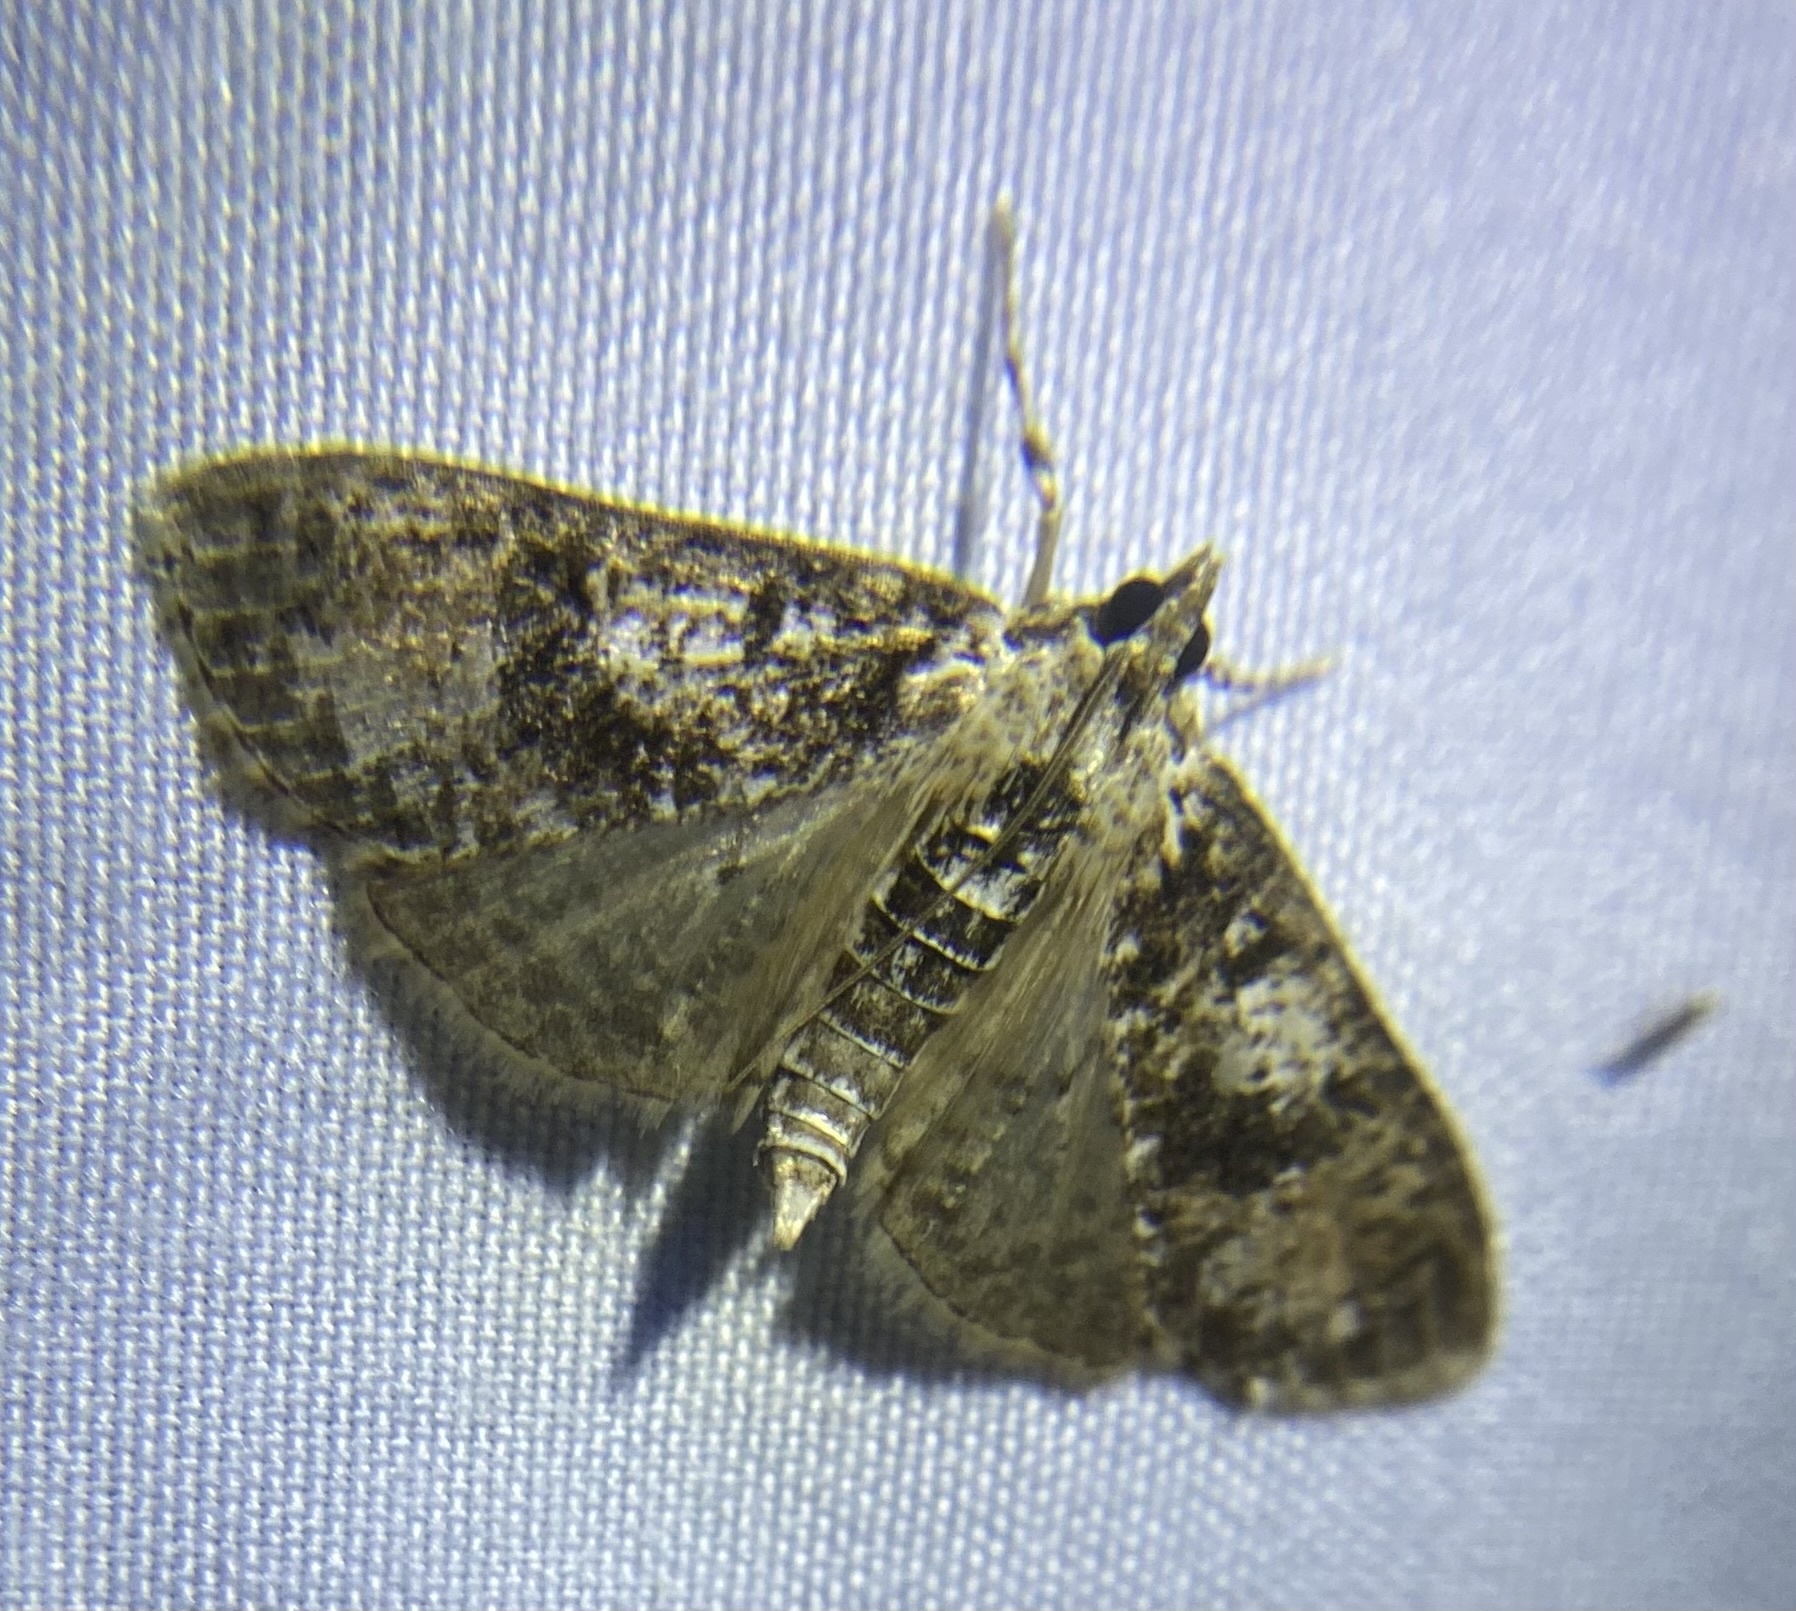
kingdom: Animalia
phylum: Arthropoda
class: Insecta
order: Lepidoptera
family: Crambidae
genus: Palpita
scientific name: Palpita magniferalis
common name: Splendid palpita moth
